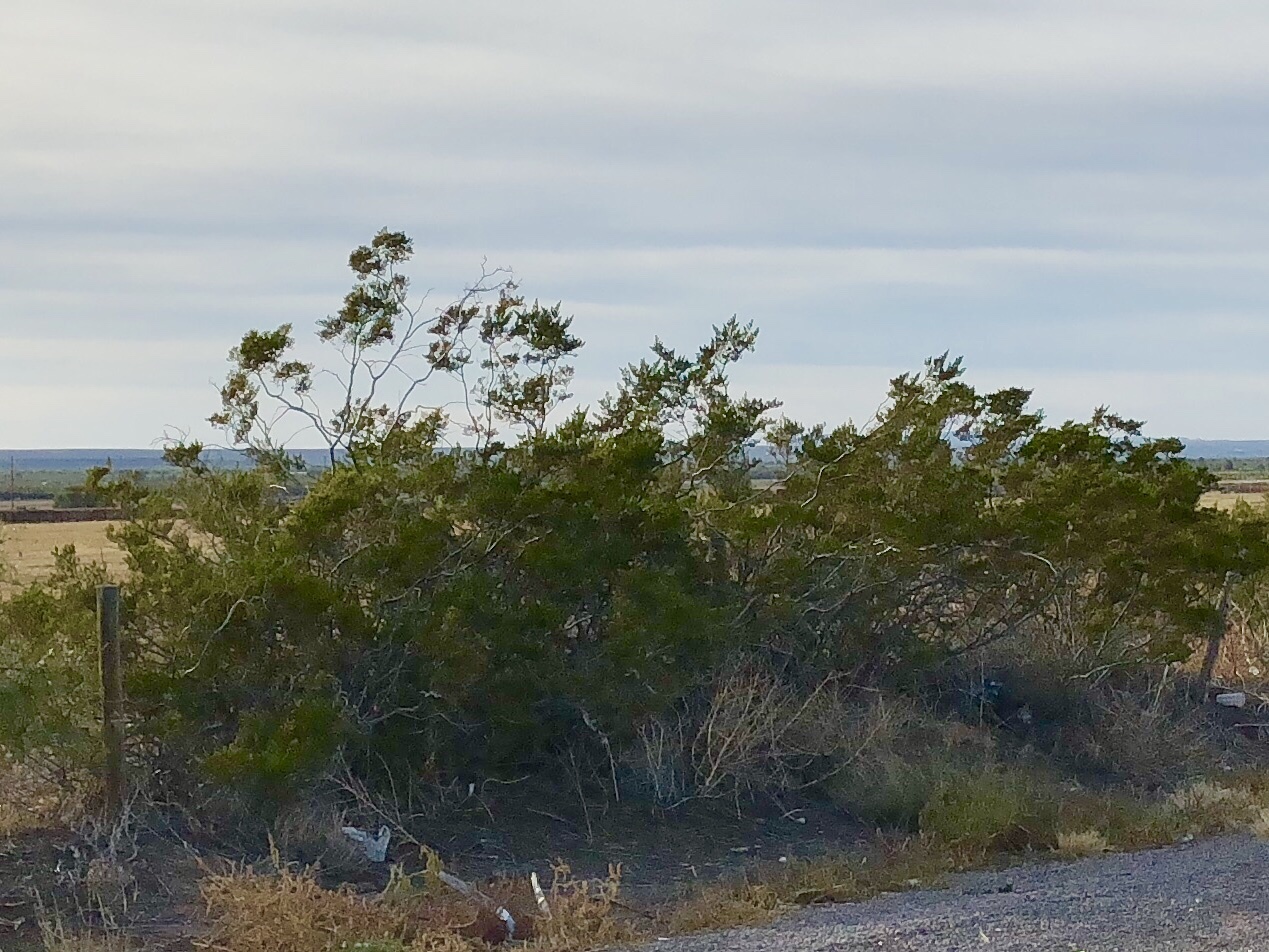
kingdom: Plantae
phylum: Tracheophyta
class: Magnoliopsida
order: Zygophyllales
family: Zygophyllaceae
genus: Larrea
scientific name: Larrea tridentata
